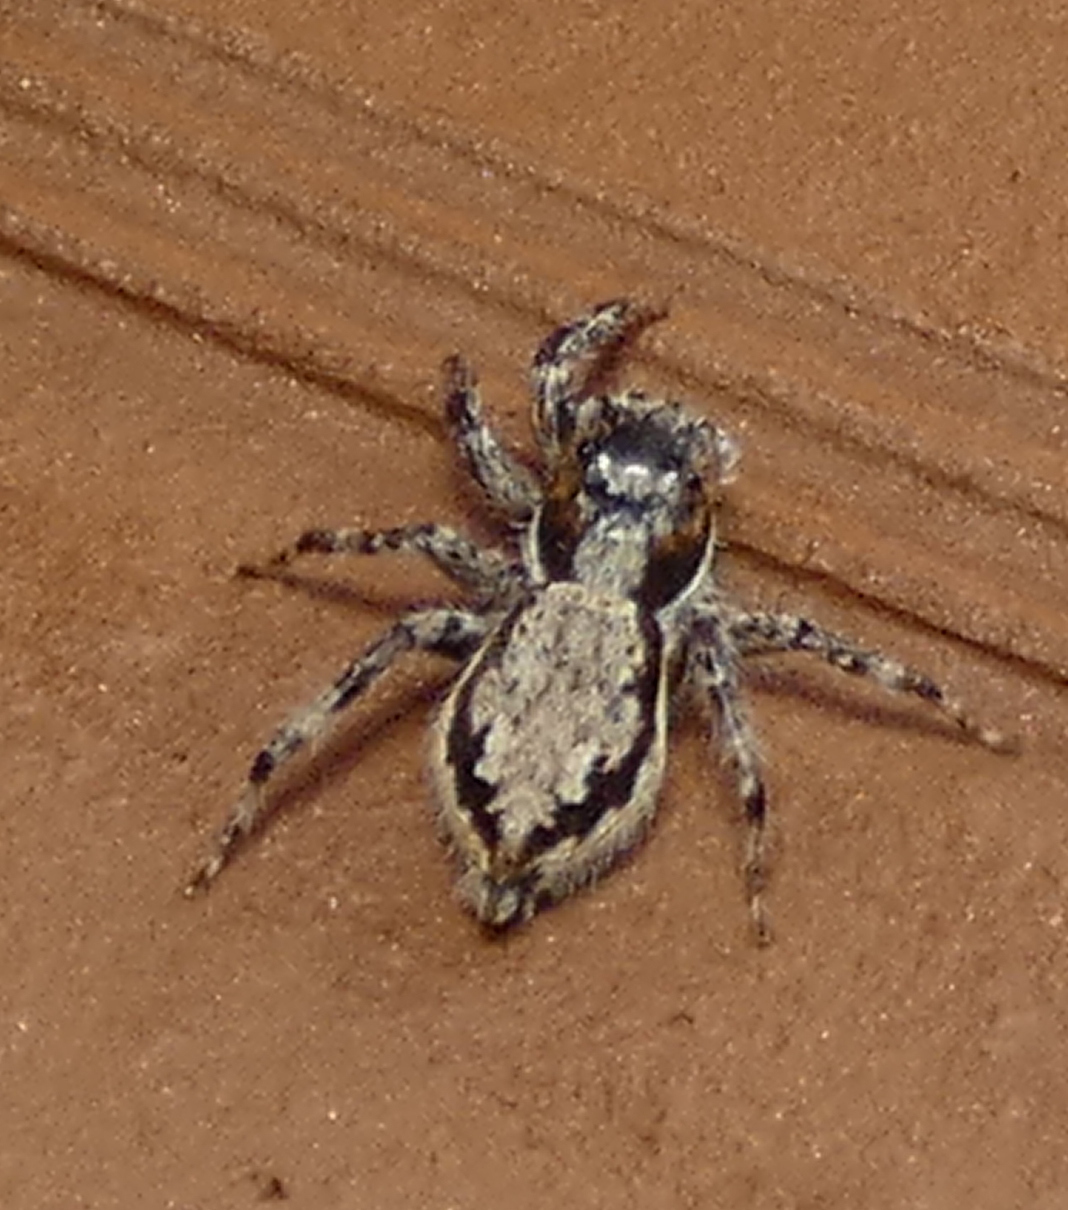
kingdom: Animalia
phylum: Arthropoda
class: Arachnida
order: Araneae
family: Salticidae
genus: Menemerus
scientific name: Menemerus bivittatus
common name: Gray wall jumper
